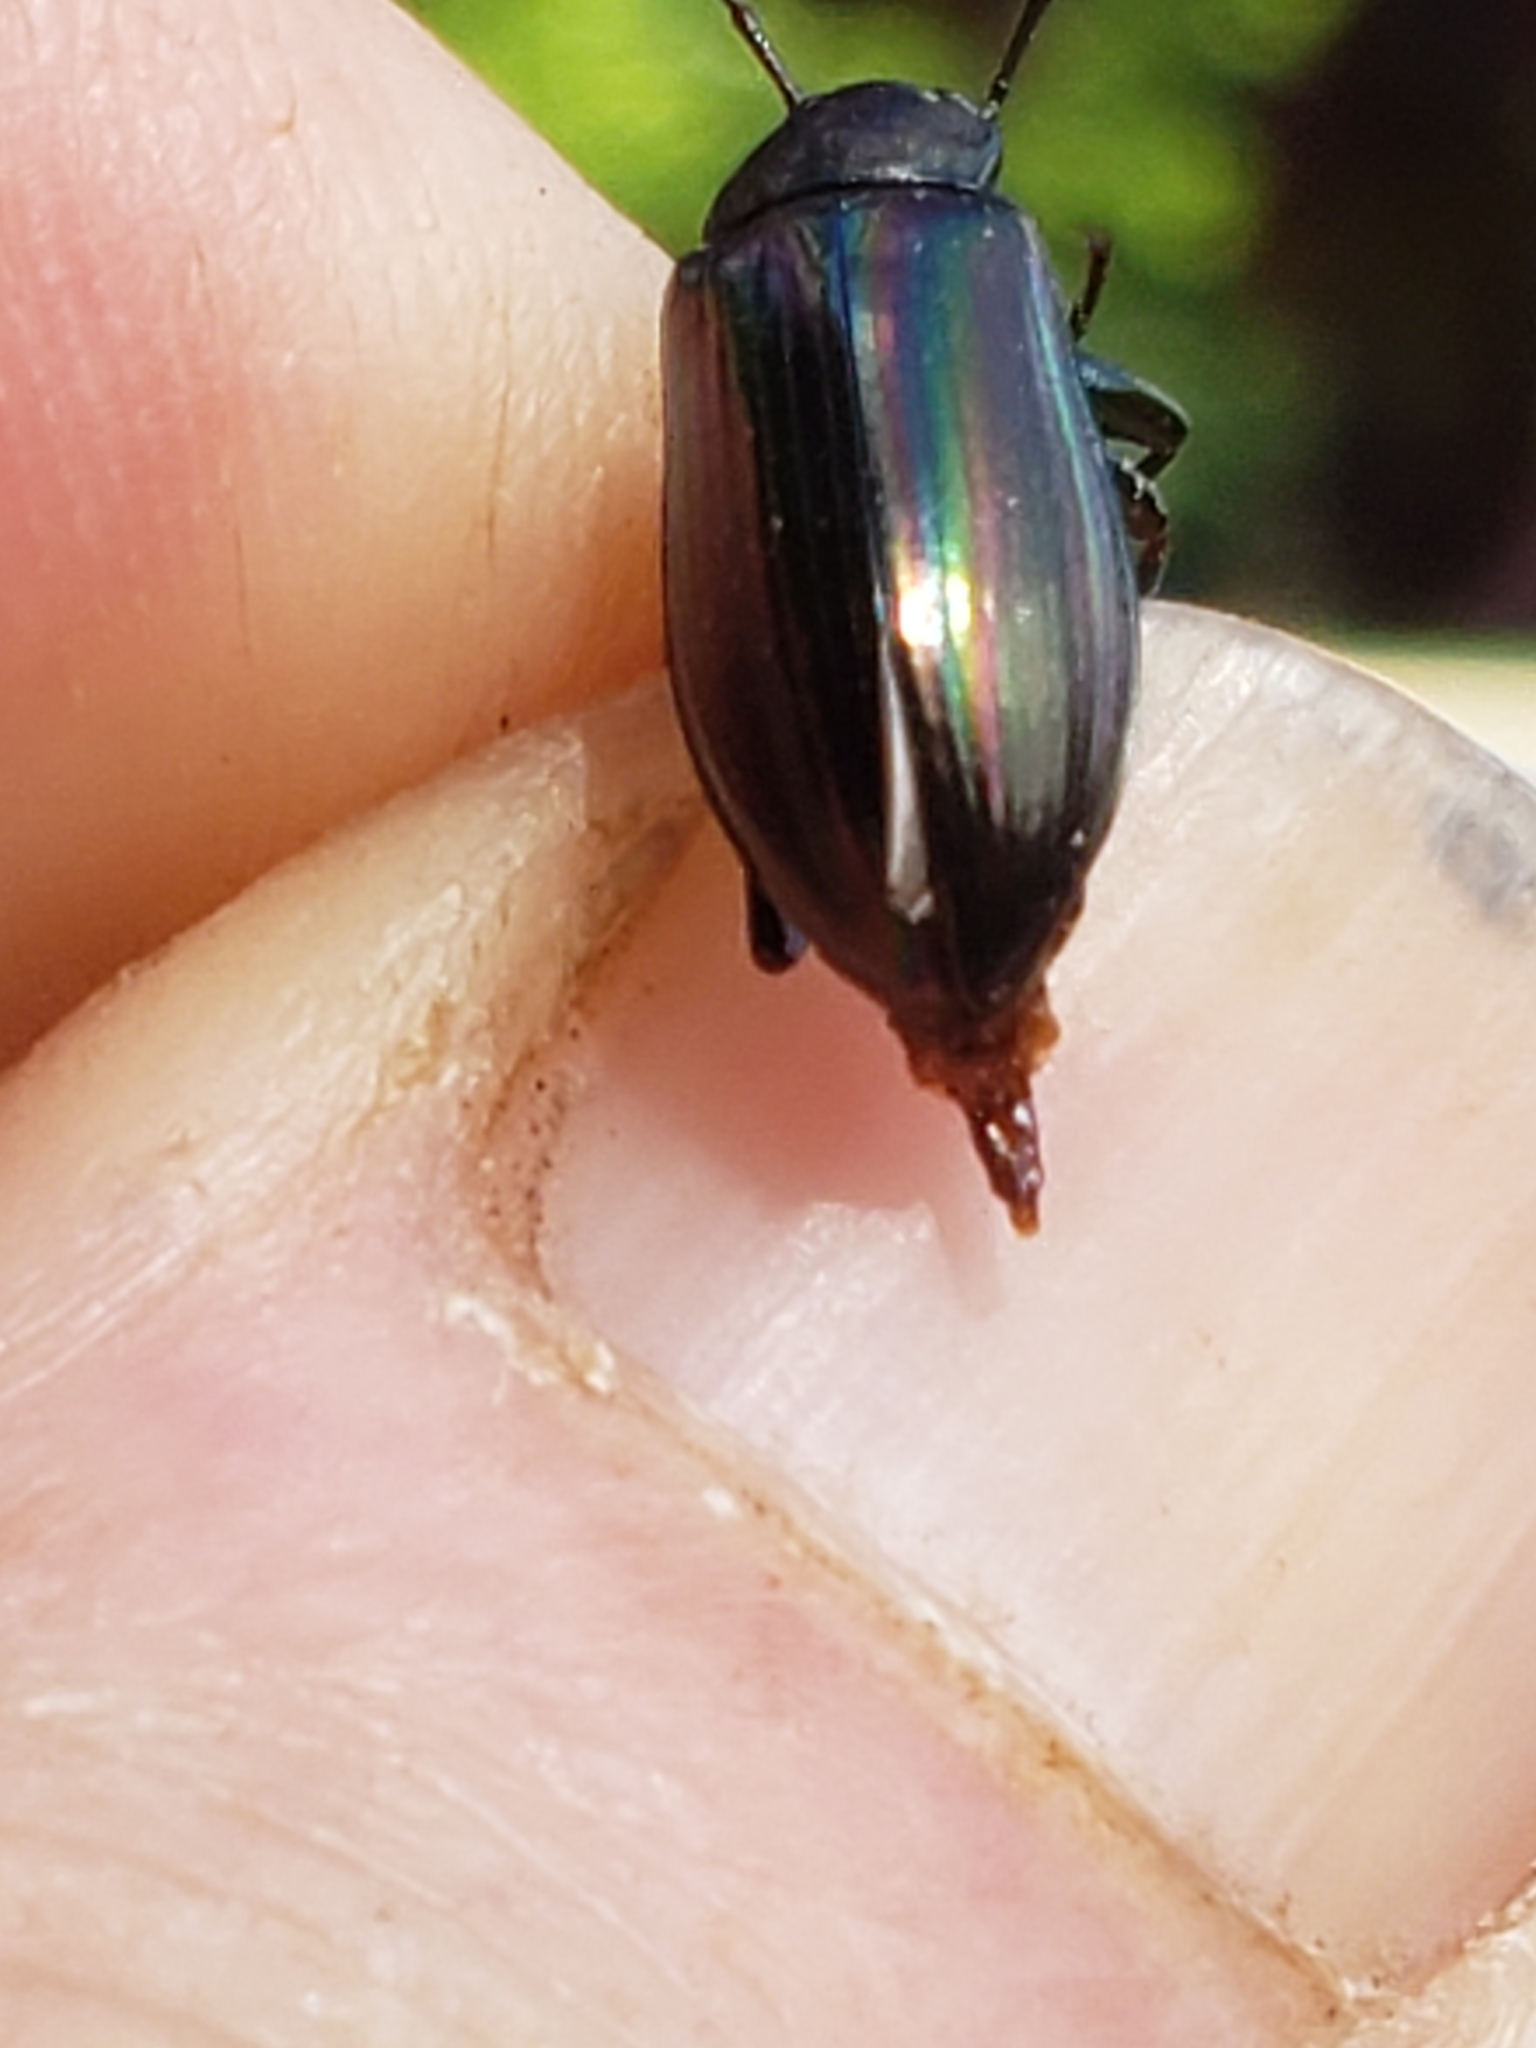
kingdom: Animalia
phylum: Arthropoda
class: Insecta
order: Coleoptera
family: Tenebrionidae
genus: Tarpela
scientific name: Tarpela micans
